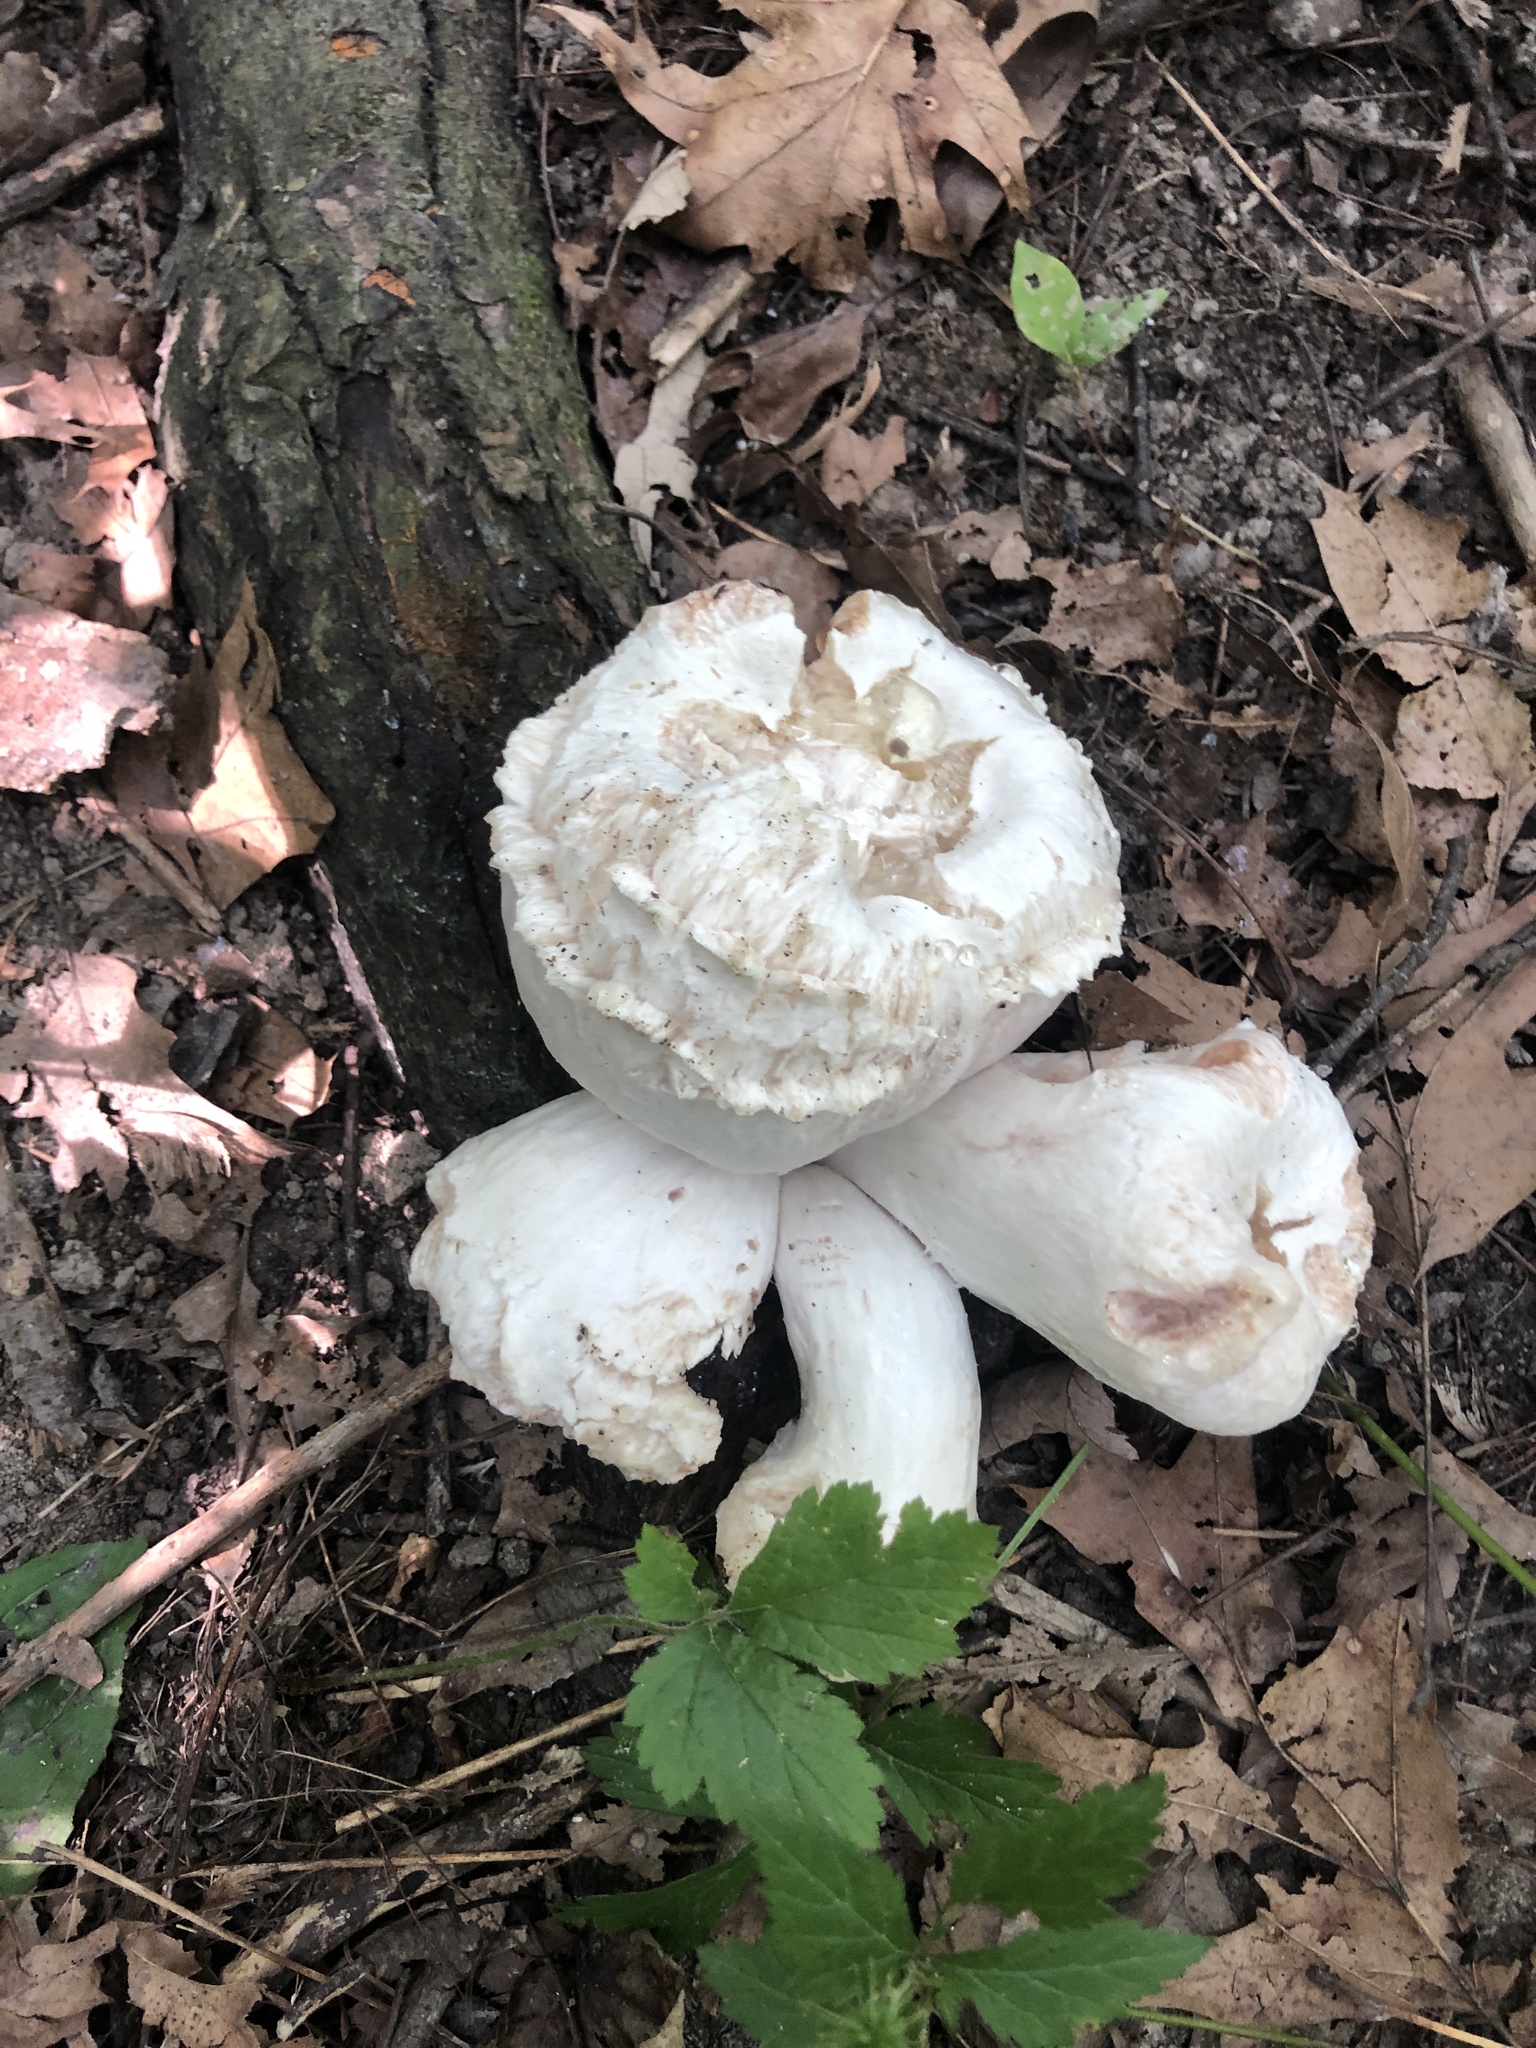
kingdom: Fungi
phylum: Basidiomycota
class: Agaricomycetes
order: Agaricales
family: Entolomataceae
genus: Entoloma
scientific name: Entoloma abortivum
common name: Aborted entoloma
